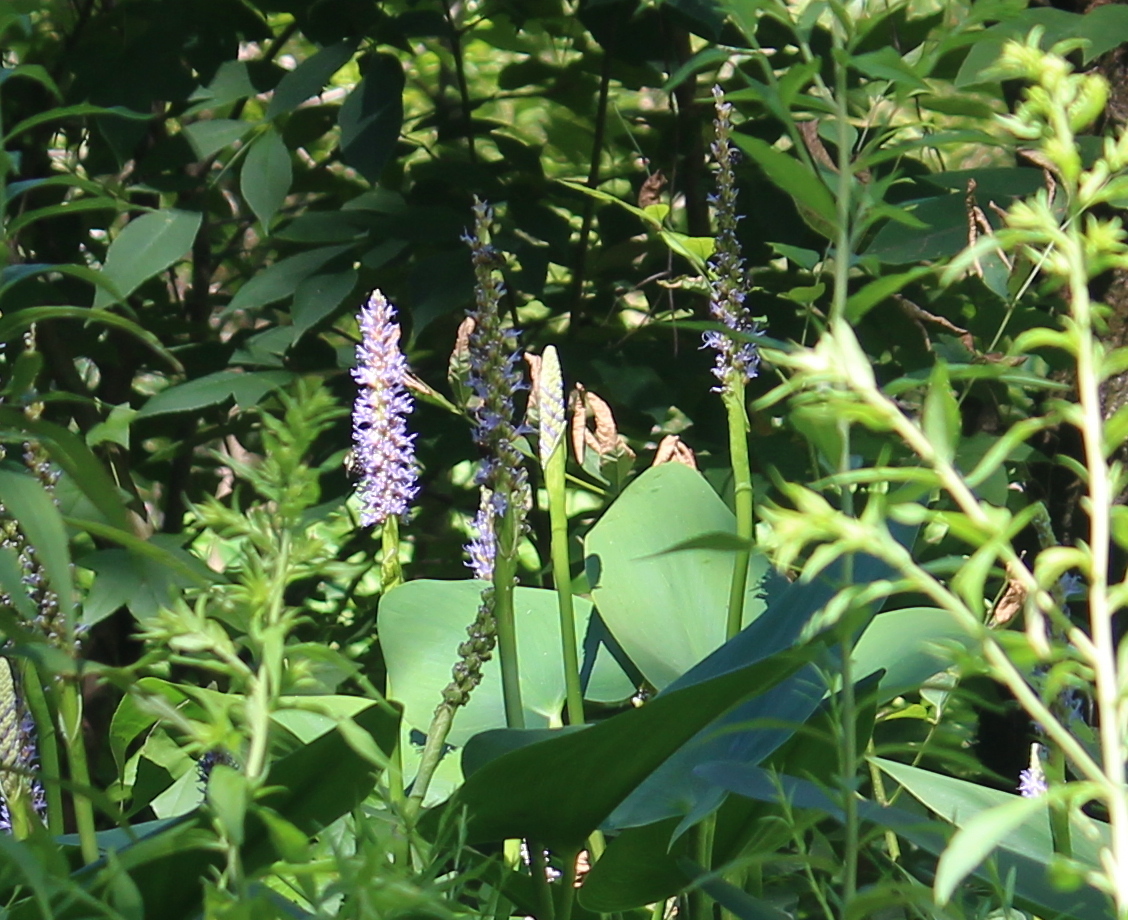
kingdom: Plantae
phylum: Tracheophyta
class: Liliopsida
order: Commelinales
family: Pontederiaceae
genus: Pontederia
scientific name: Pontederia cordata
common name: Pickerelweed
